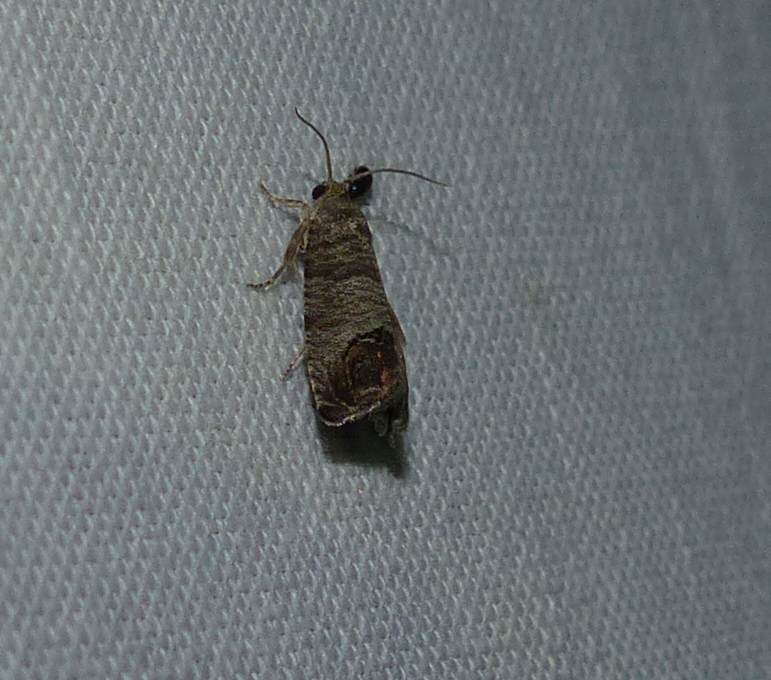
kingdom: Animalia
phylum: Arthropoda
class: Insecta
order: Lepidoptera
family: Tortricidae
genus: Cydia
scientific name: Cydia pomonella
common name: Codling moth
